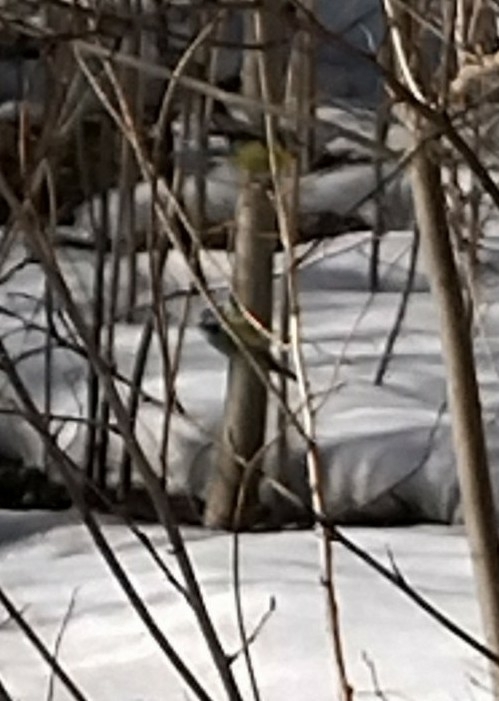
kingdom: Animalia
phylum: Chordata
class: Aves
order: Passeriformes
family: Paridae
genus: Cyanistes
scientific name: Cyanistes caeruleus
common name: Eurasian blue tit
